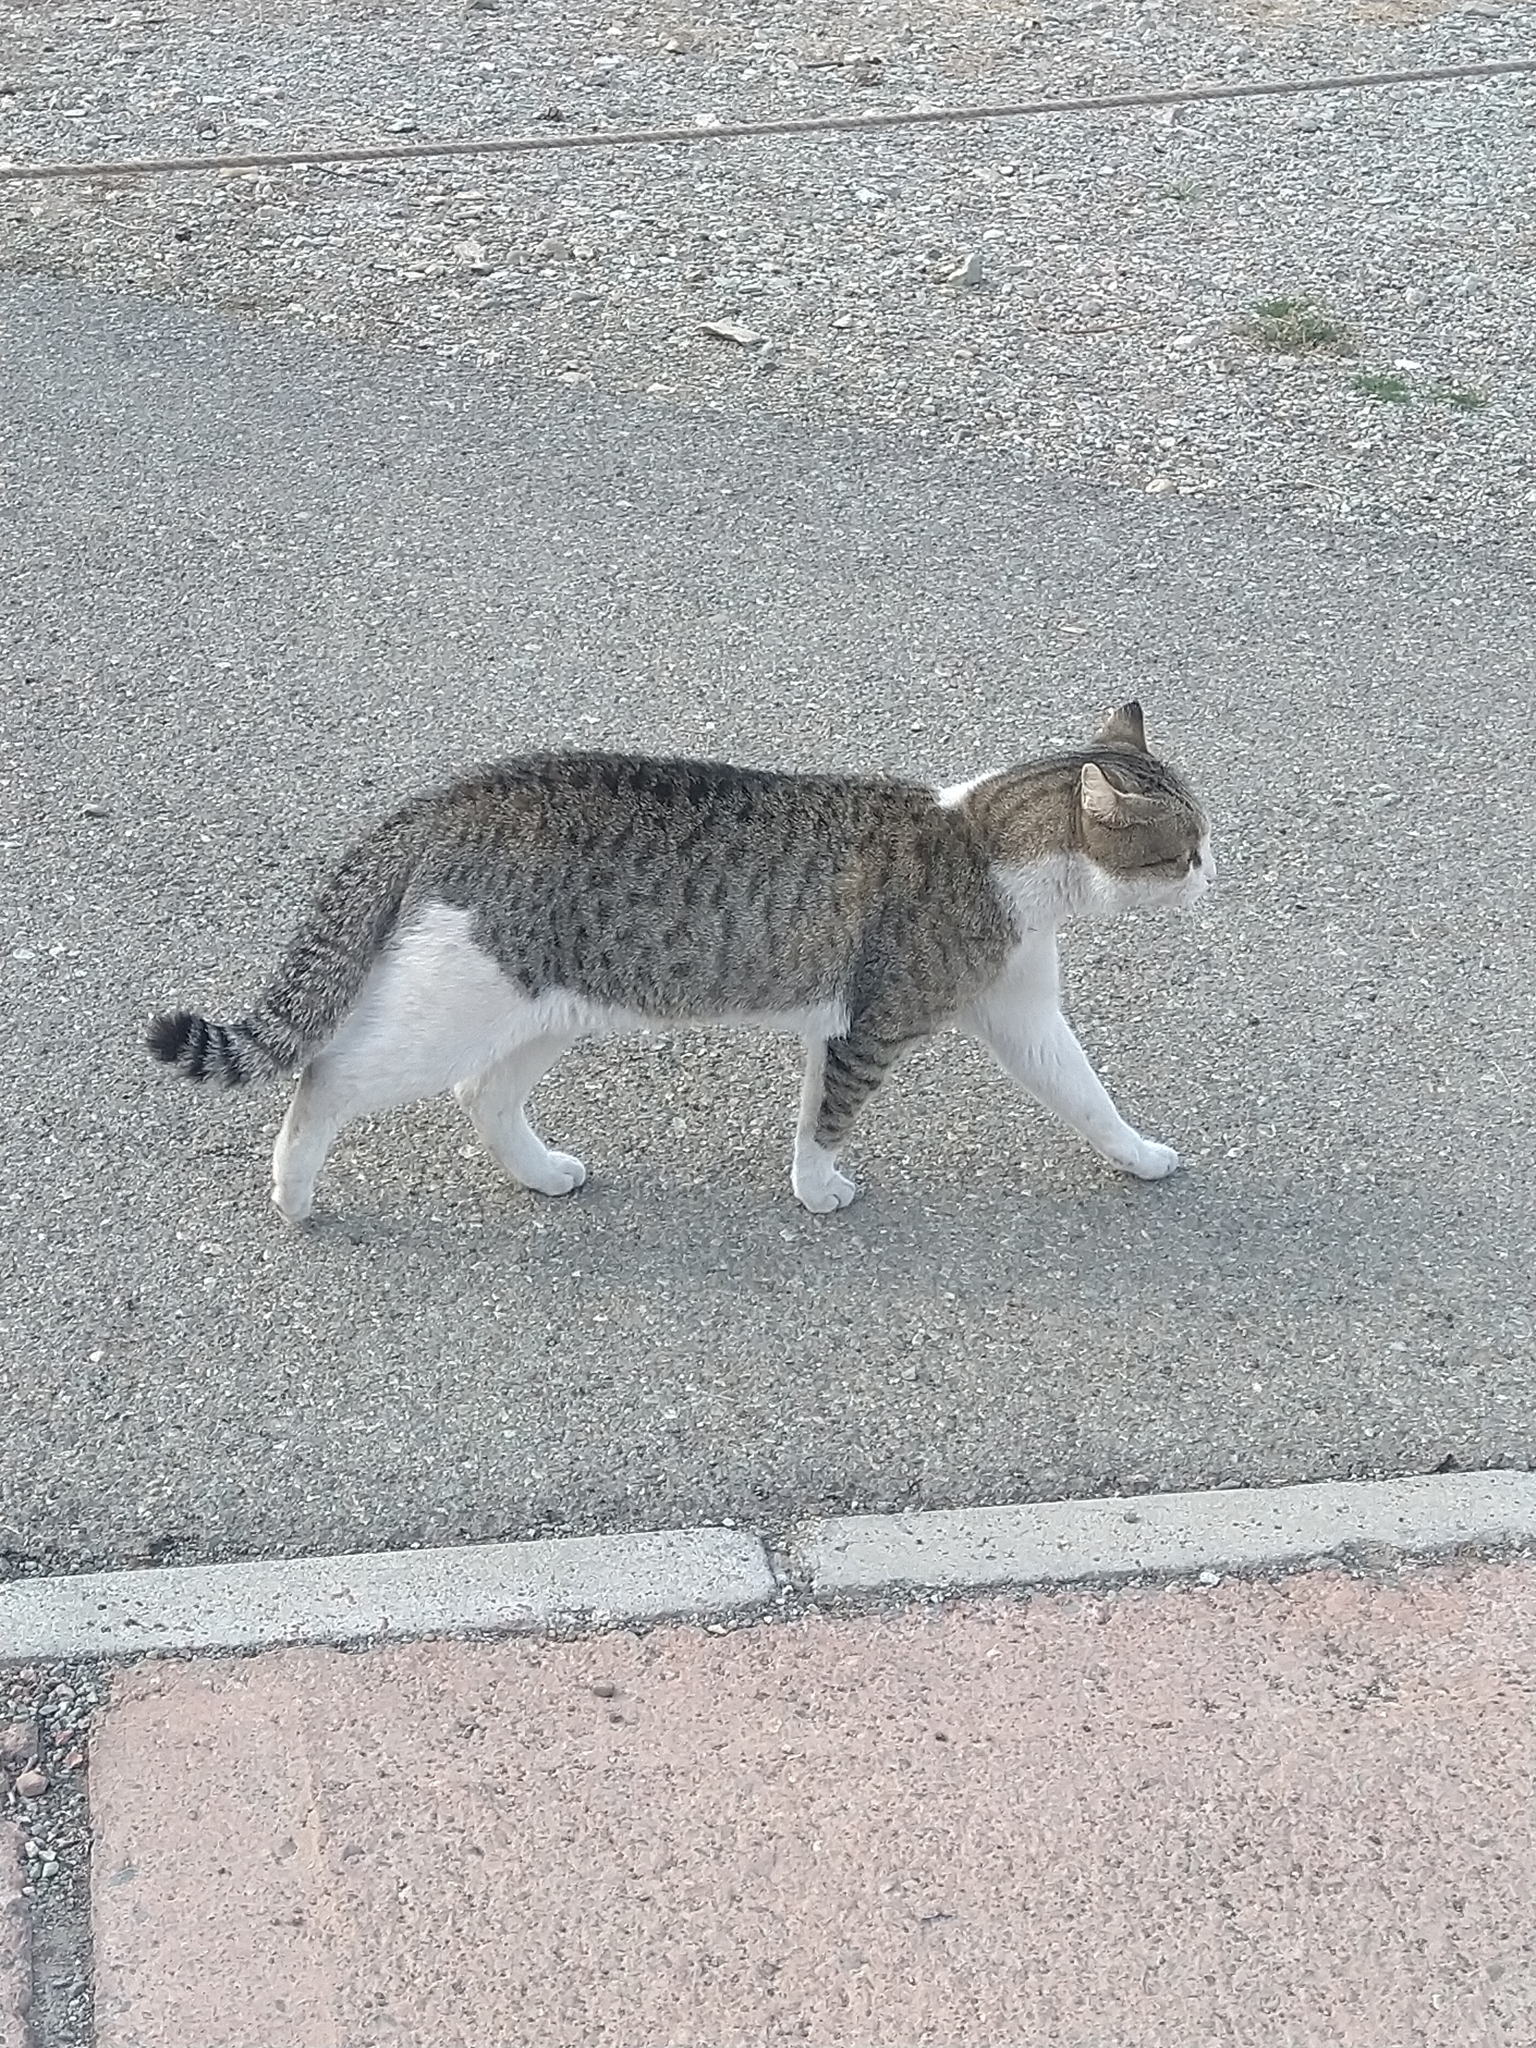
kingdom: Animalia
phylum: Chordata
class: Mammalia
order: Carnivora
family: Felidae
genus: Felis
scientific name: Felis catus
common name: Domestic cat
